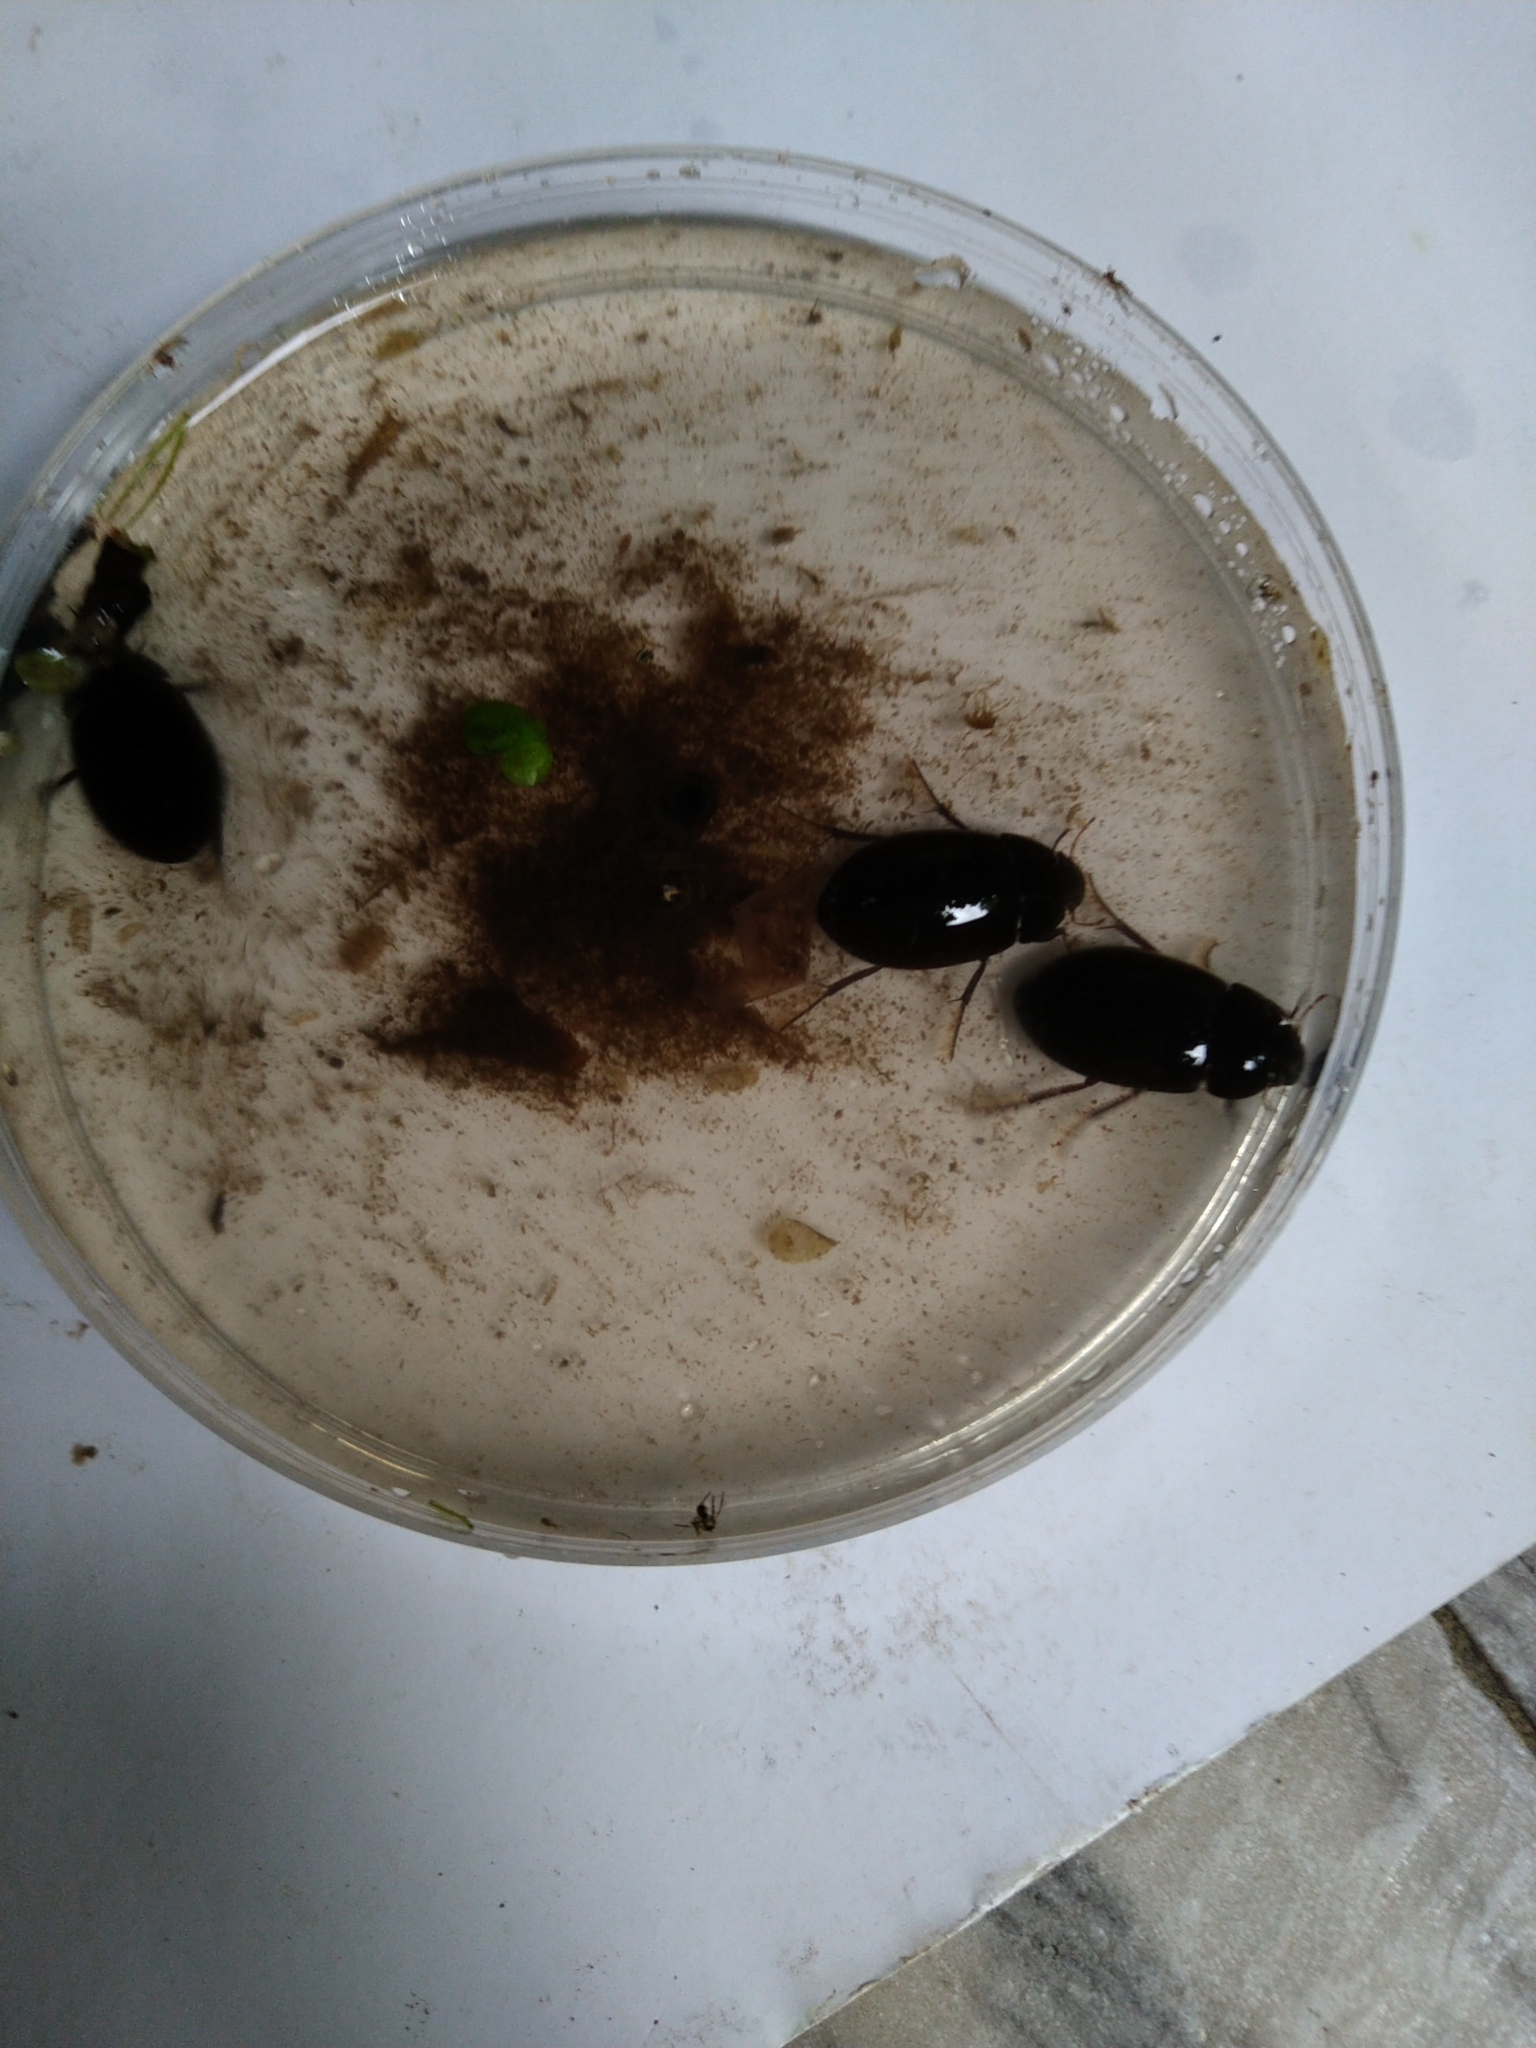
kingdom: Animalia
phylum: Arthropoda
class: Insecta
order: Coleoptera
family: Hydrophilidae
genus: Hydrochara
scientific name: Hydrochara caraboides
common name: Lesser silver water beetle
